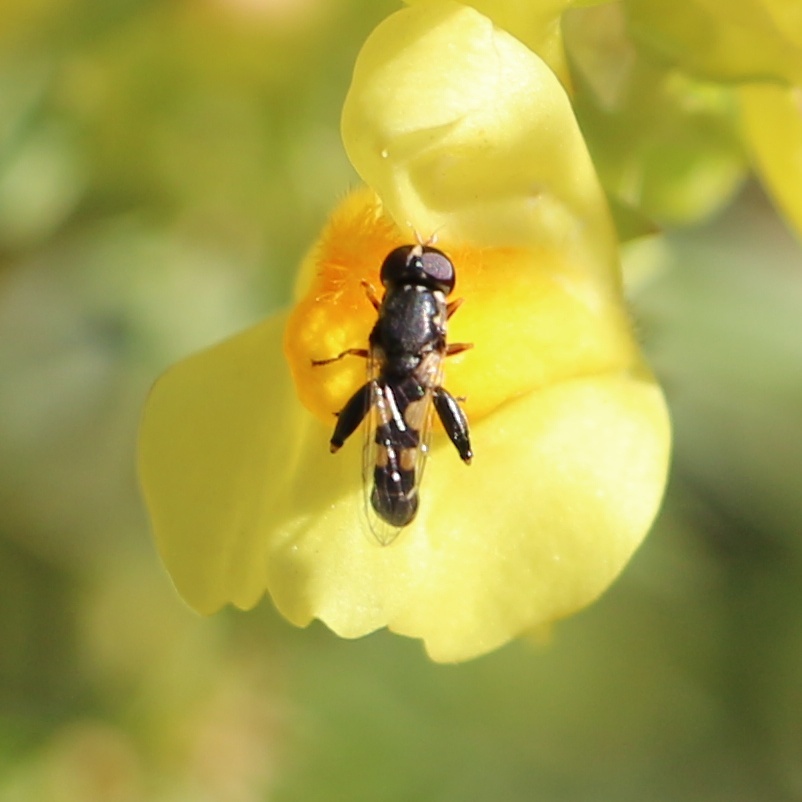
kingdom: Animalia
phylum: Arthropoda
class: Insecta
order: Diptera
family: Syrphidae
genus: Syritta
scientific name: Syritta pipiens
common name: Hover fly
